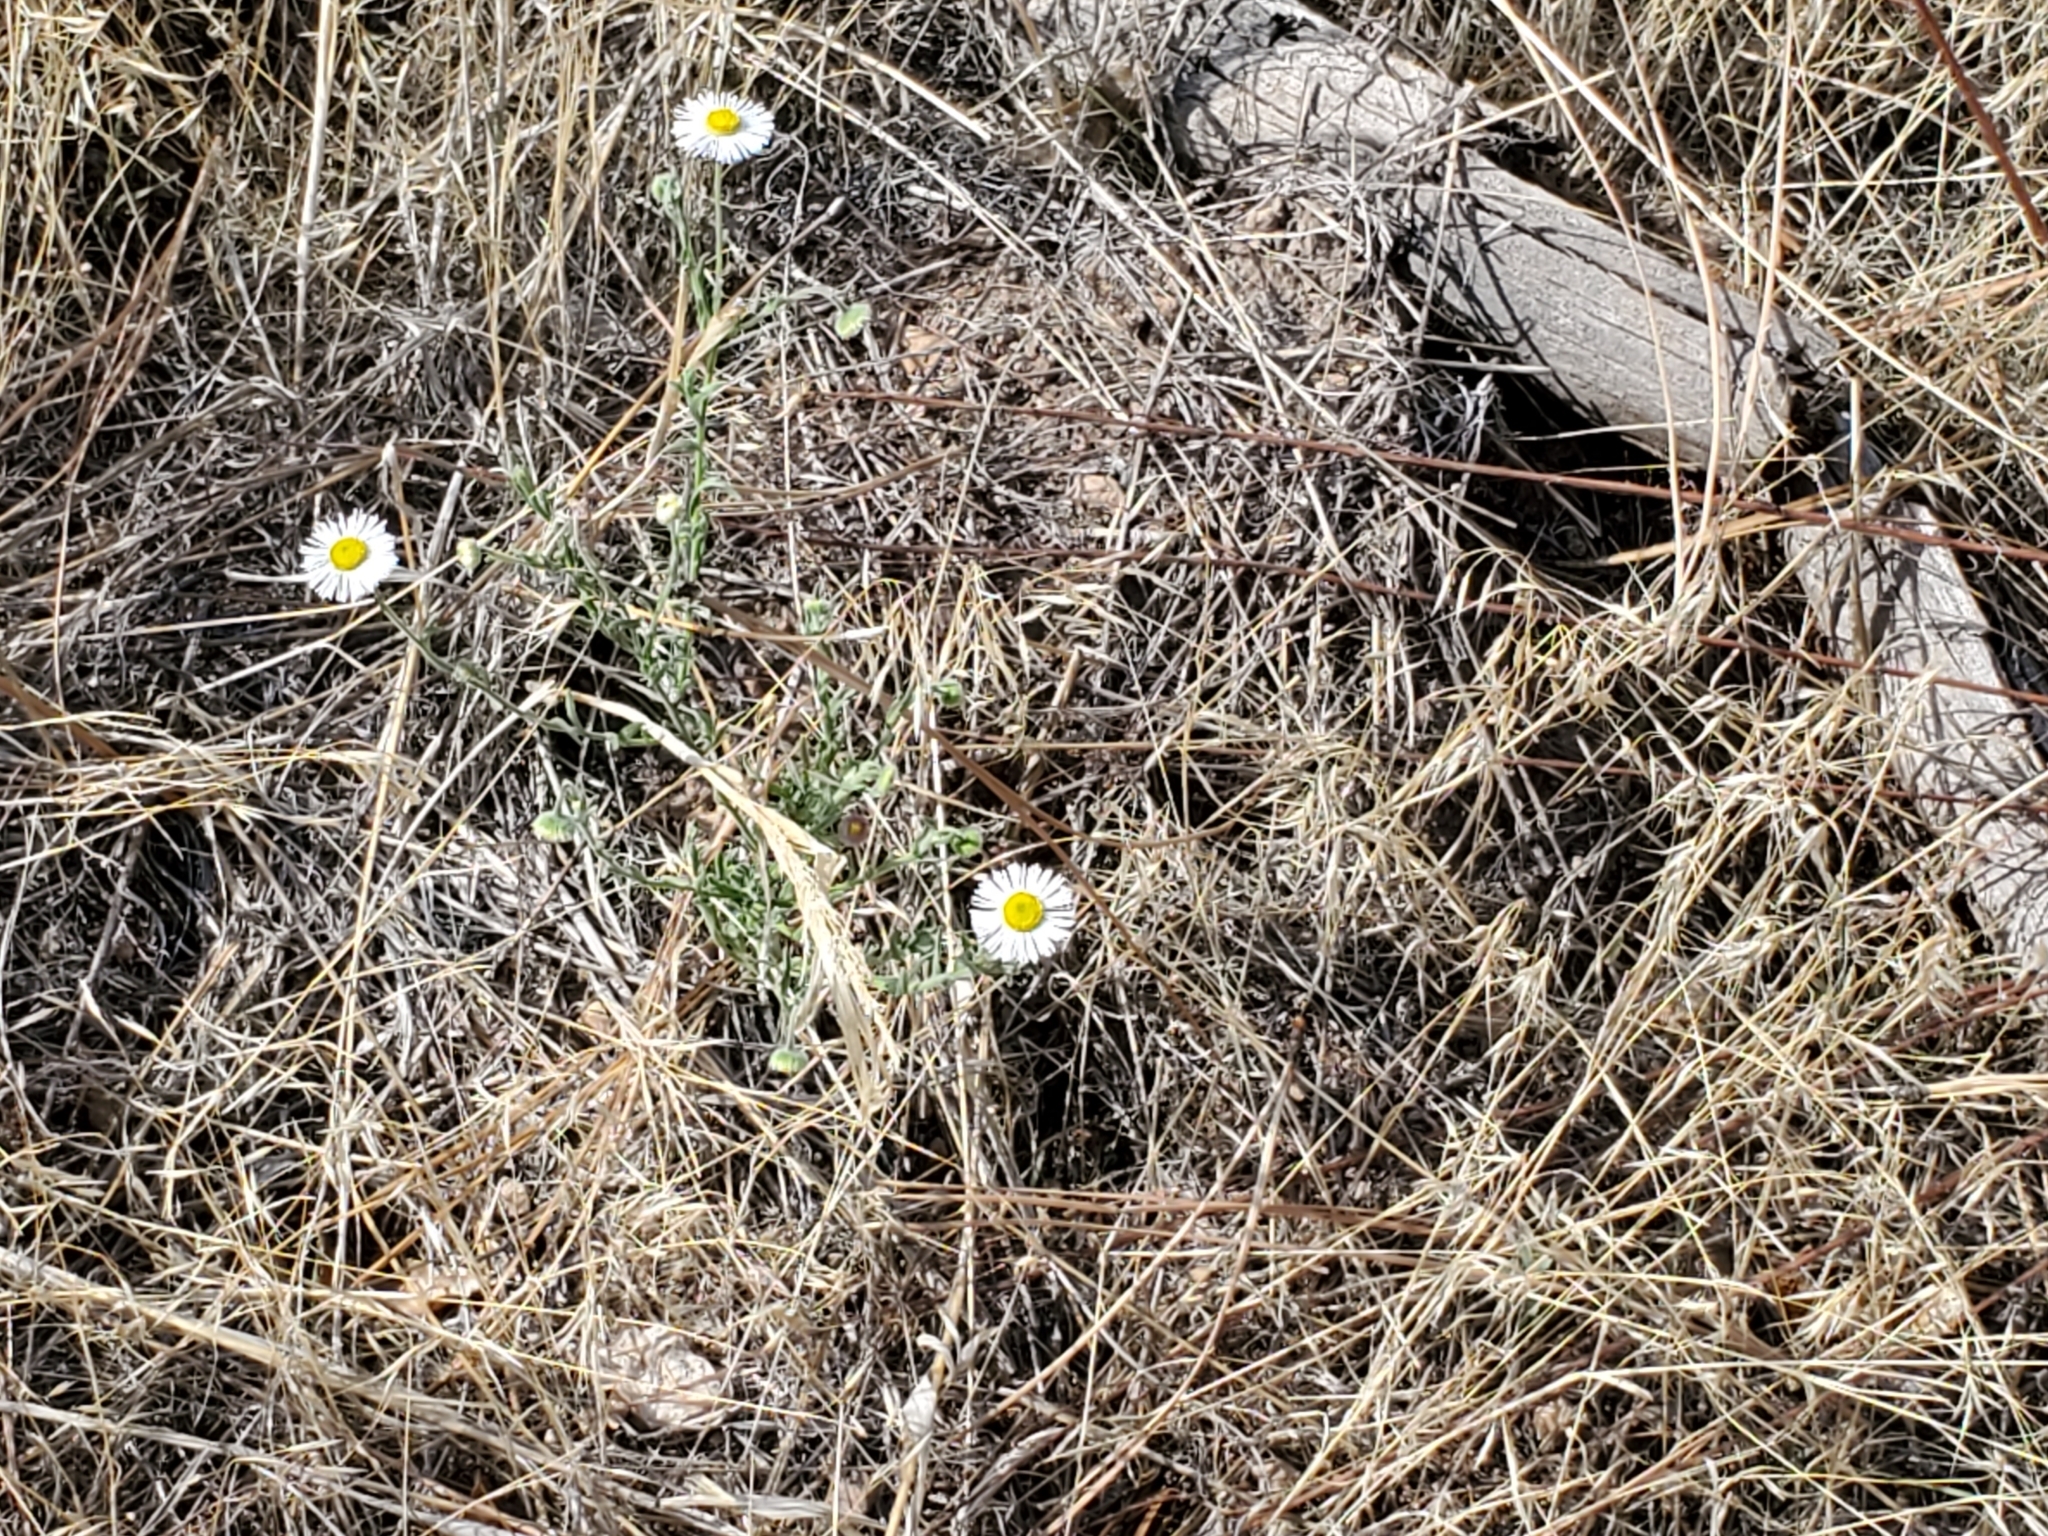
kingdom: Plantae
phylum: Tracheophyta
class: Magnoliopsida
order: Asterales
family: Asteraceae
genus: Erigeron
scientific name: Erigeron divergens
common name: Diffuse fleabane
